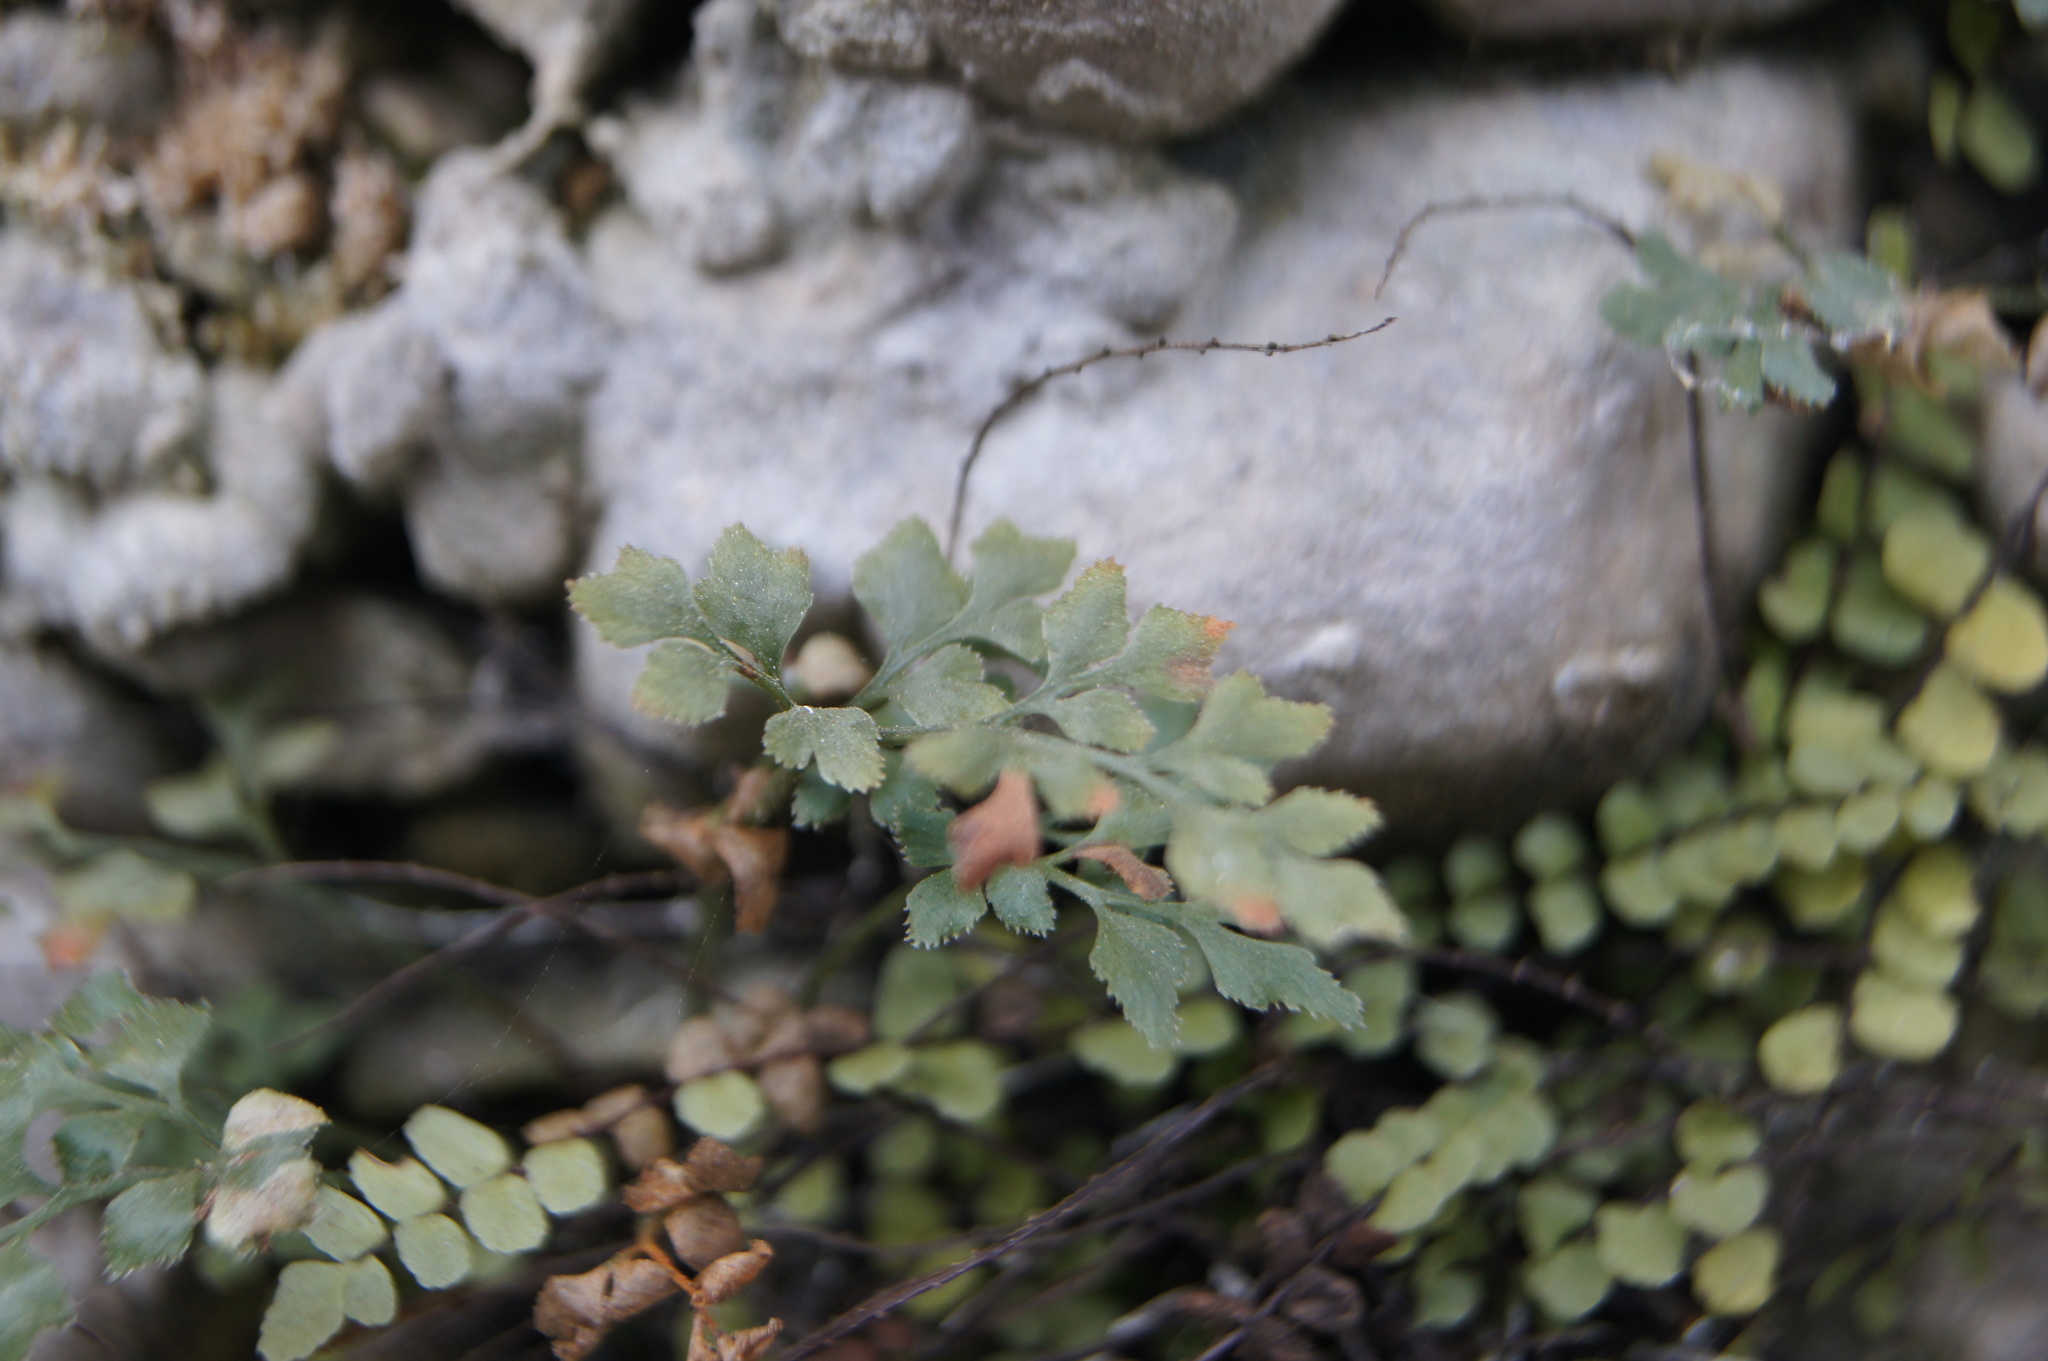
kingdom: Plantae
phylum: Tracheophyta
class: Polypodiopsida
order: Polypodiales
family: Aspleniaceae
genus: Asplenium
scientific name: Asplenium ruta-muraria
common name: Wall-rue
